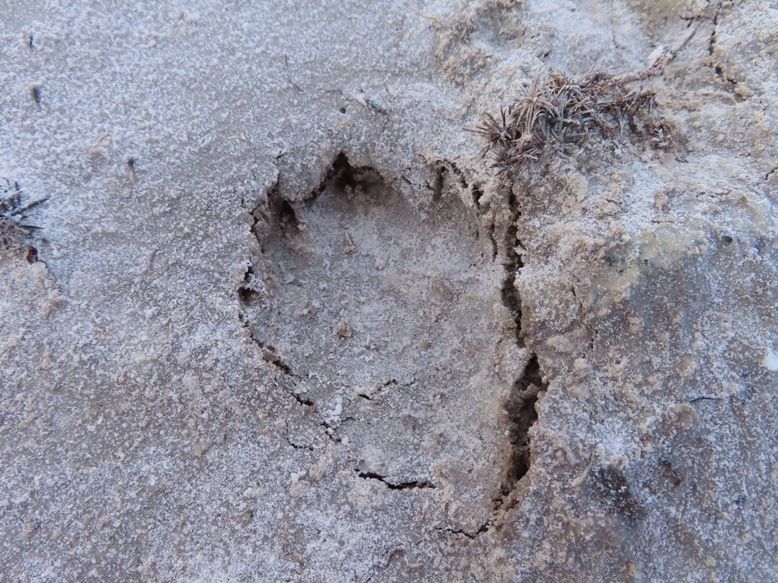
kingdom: Animalia
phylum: Chordata
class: Mammalia
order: Rodentia
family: Hystricidae
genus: Hystrix
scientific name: Hystrix africaeaustralis
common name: Cape porcupine
